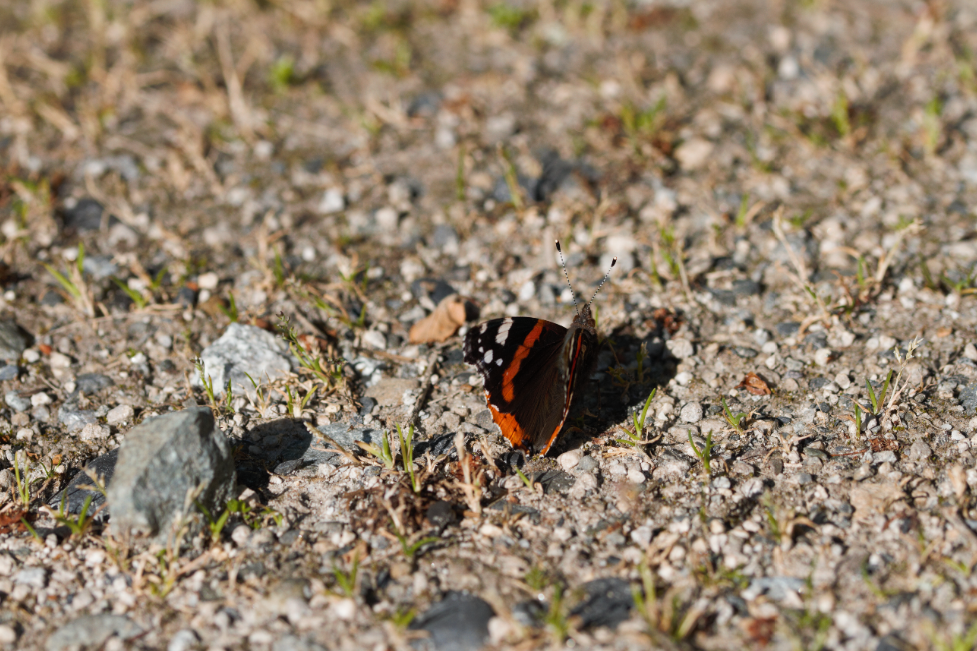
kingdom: Animalia
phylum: Arthropoda
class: Insecta
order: Lepidoptera
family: Nymphalidae
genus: Vanessa
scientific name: Vanessa atalanta
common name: Red admiral
